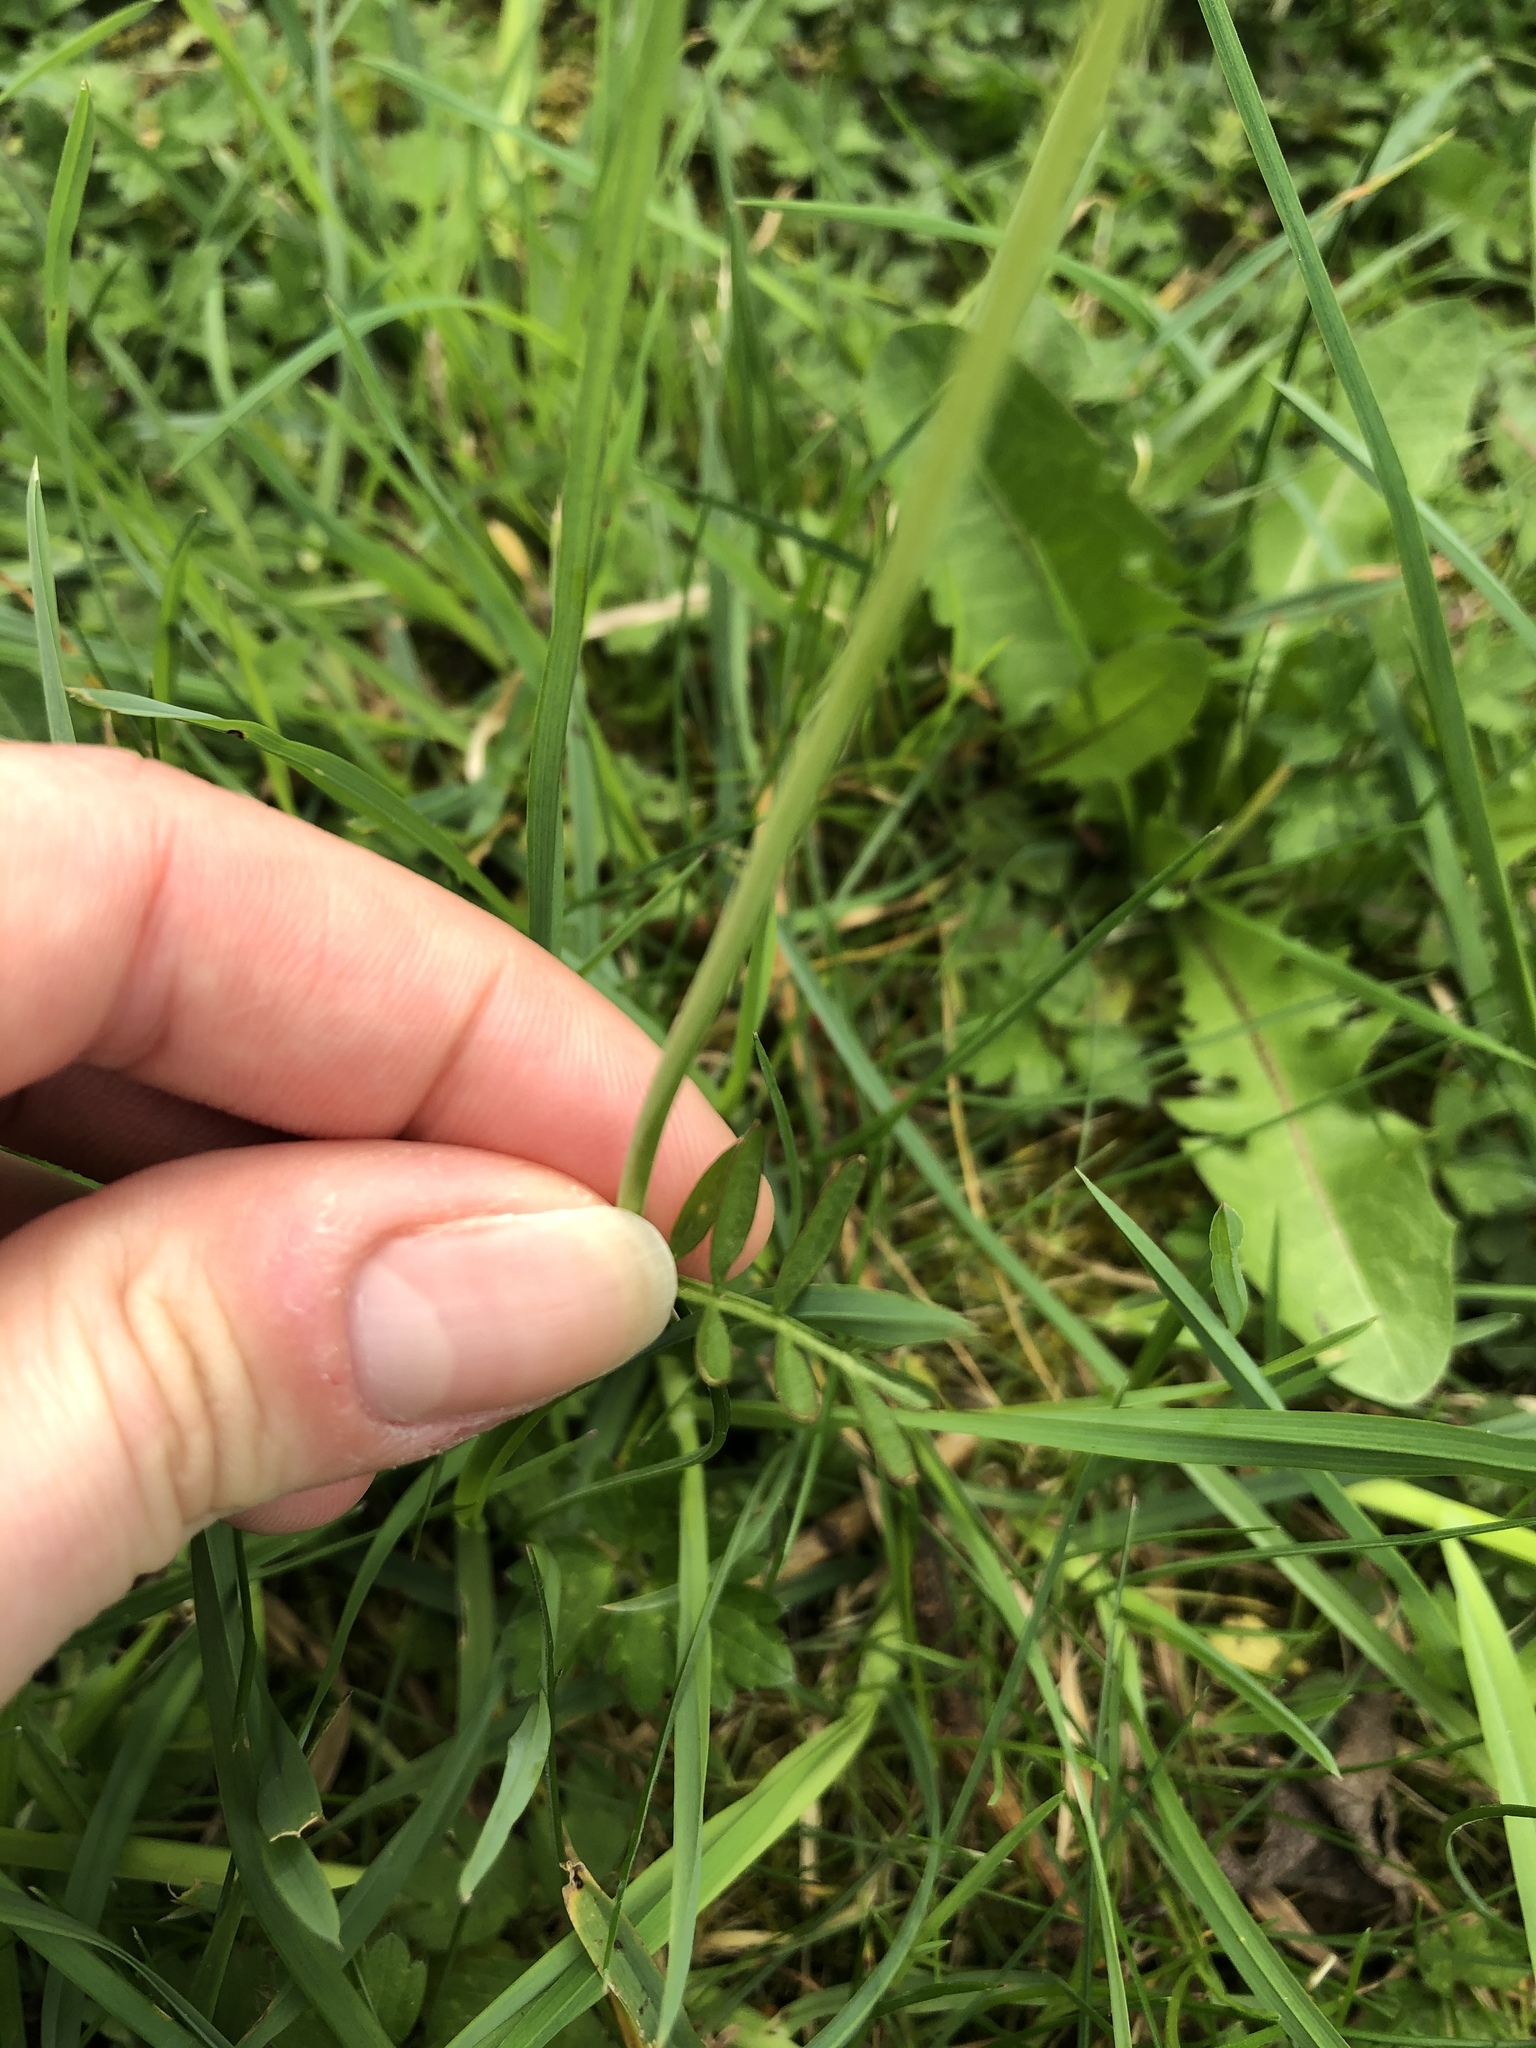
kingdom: Plantae
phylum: Tracheophyta
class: Magnoliopsida
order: Brassicales
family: Brassicaceae
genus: Cardamine
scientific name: Cardamine pratensis
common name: Cuckoo flower
